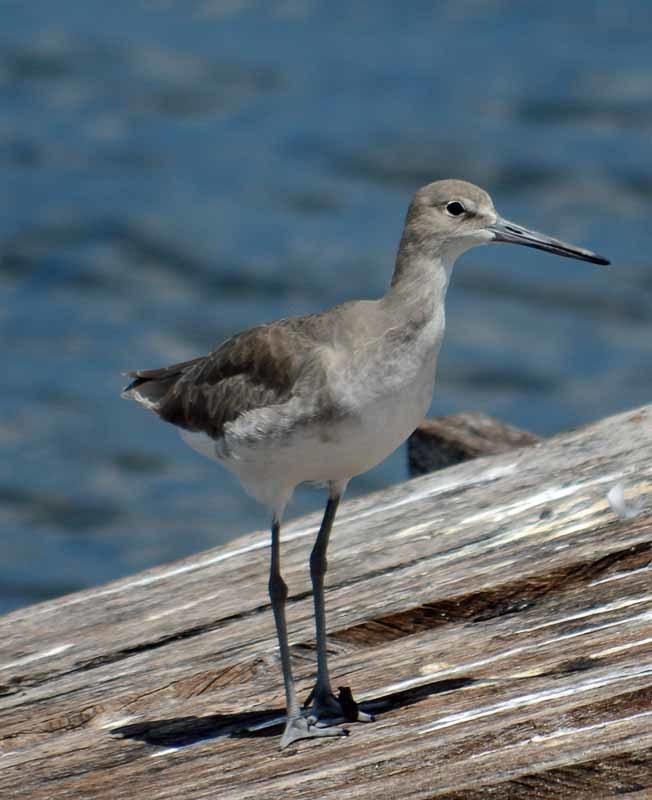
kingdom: Animalia
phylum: Chordata
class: Aves
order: Charadriiformes
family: Scolopacidae
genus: Tringa
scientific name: Tringa semipalmata
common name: Willet
